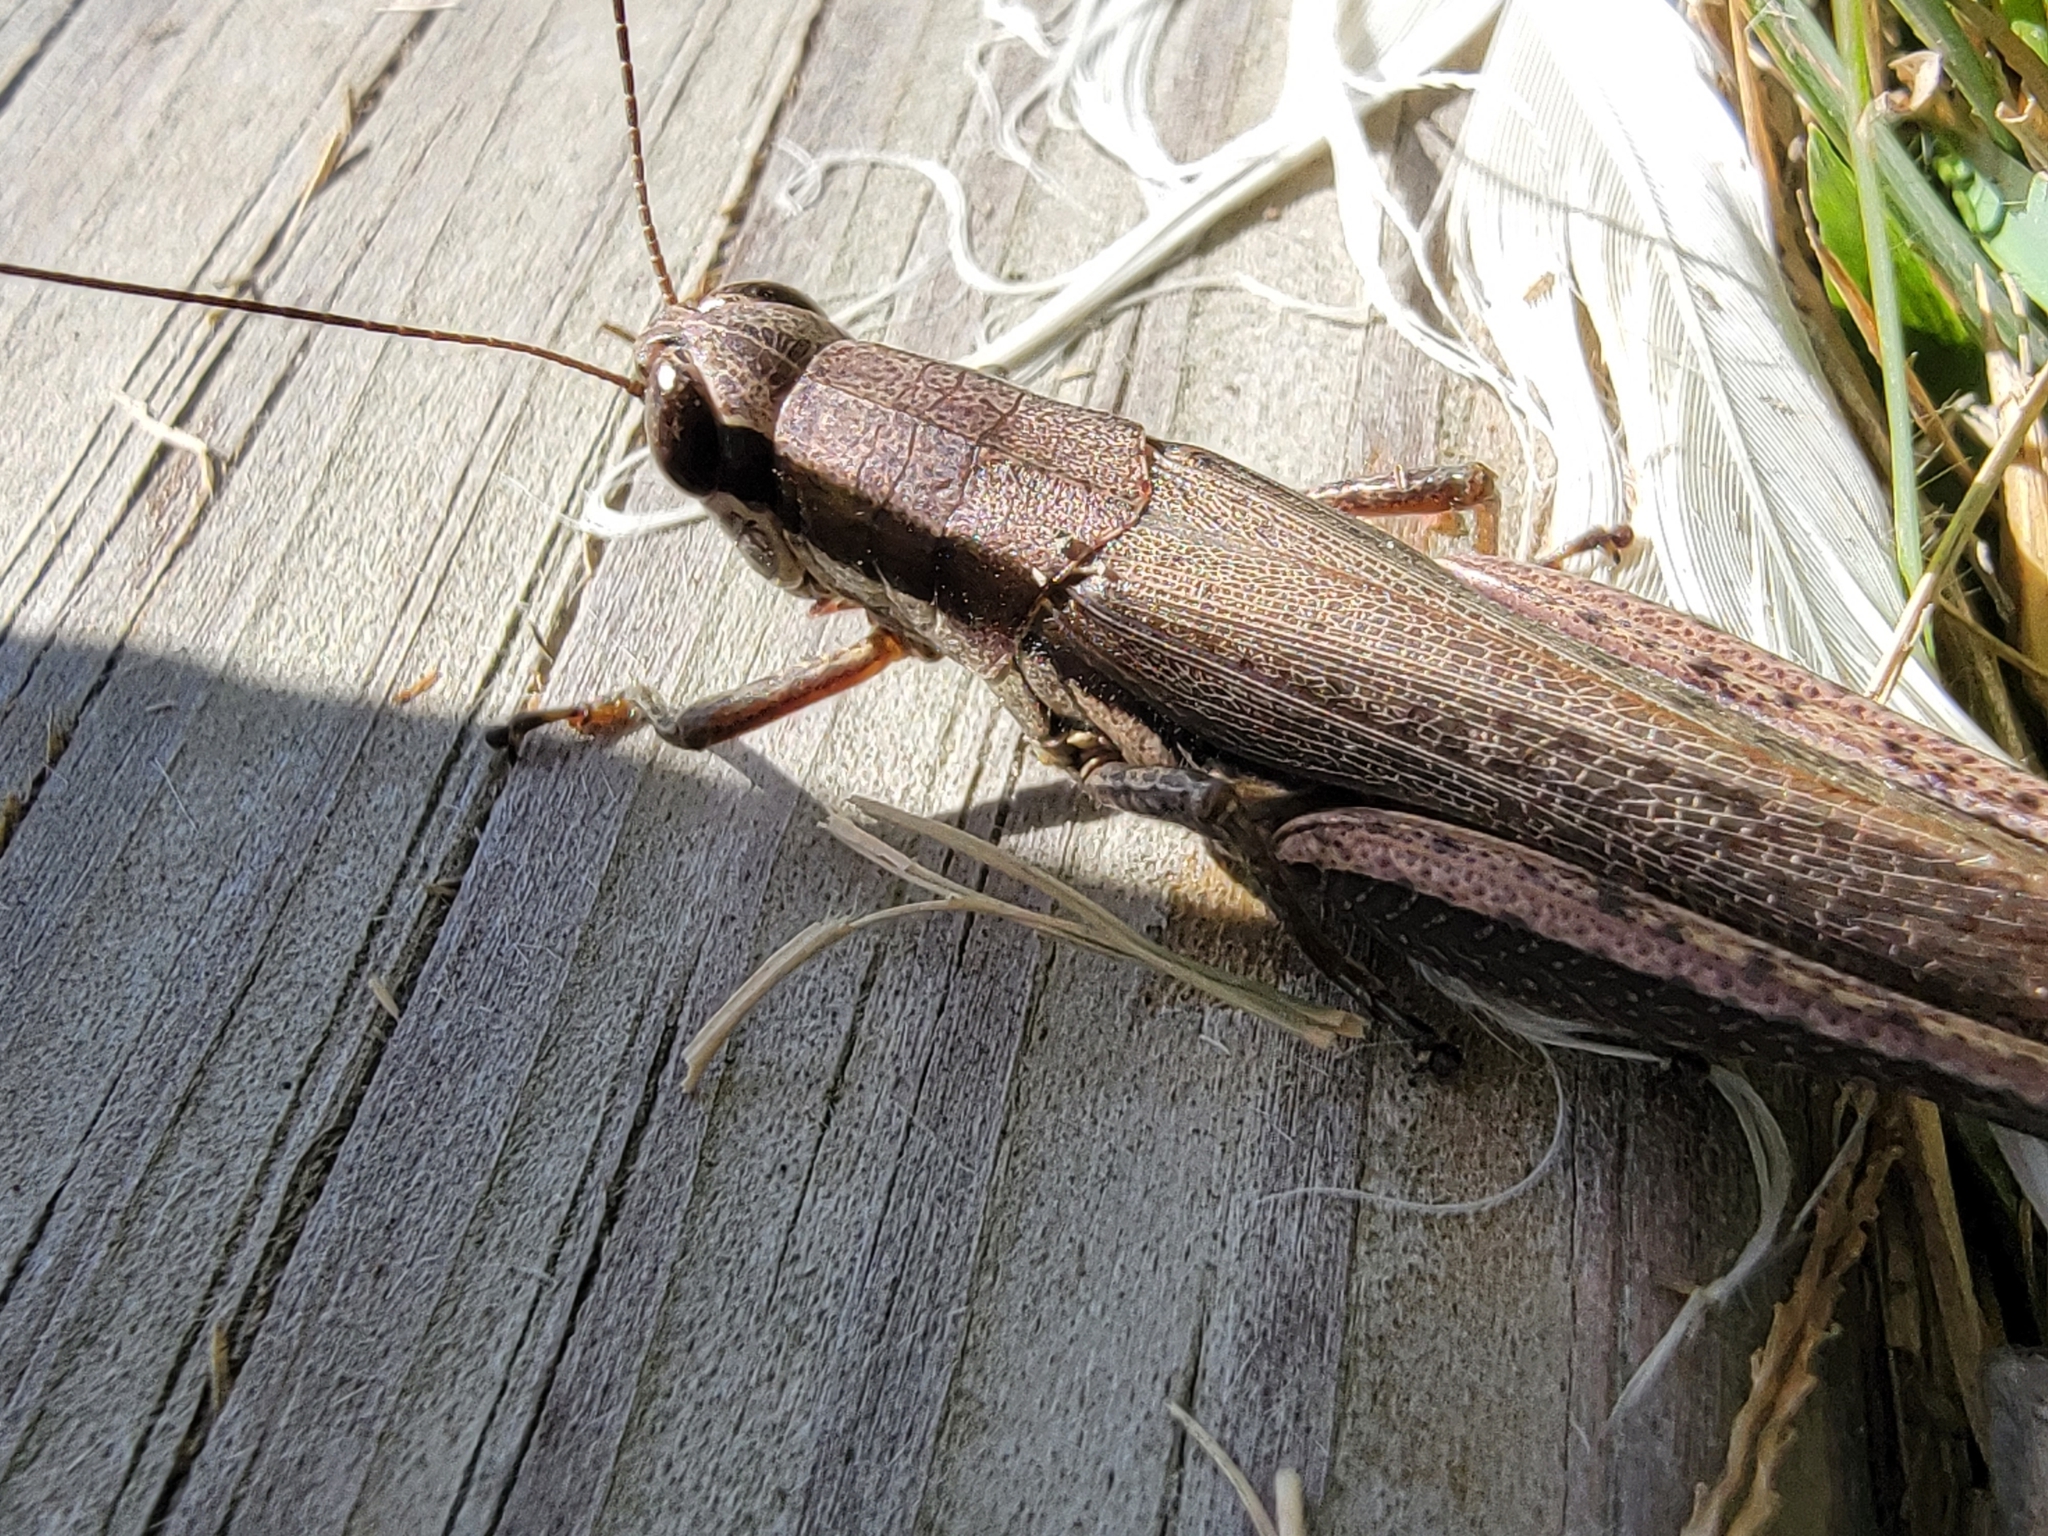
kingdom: Animalia
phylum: Arthropoda
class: Insecta
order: Orthoptera
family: Acrididae
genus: Paroxya
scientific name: Paroxya clavuligera
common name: Olive-green swamp grasshopper
